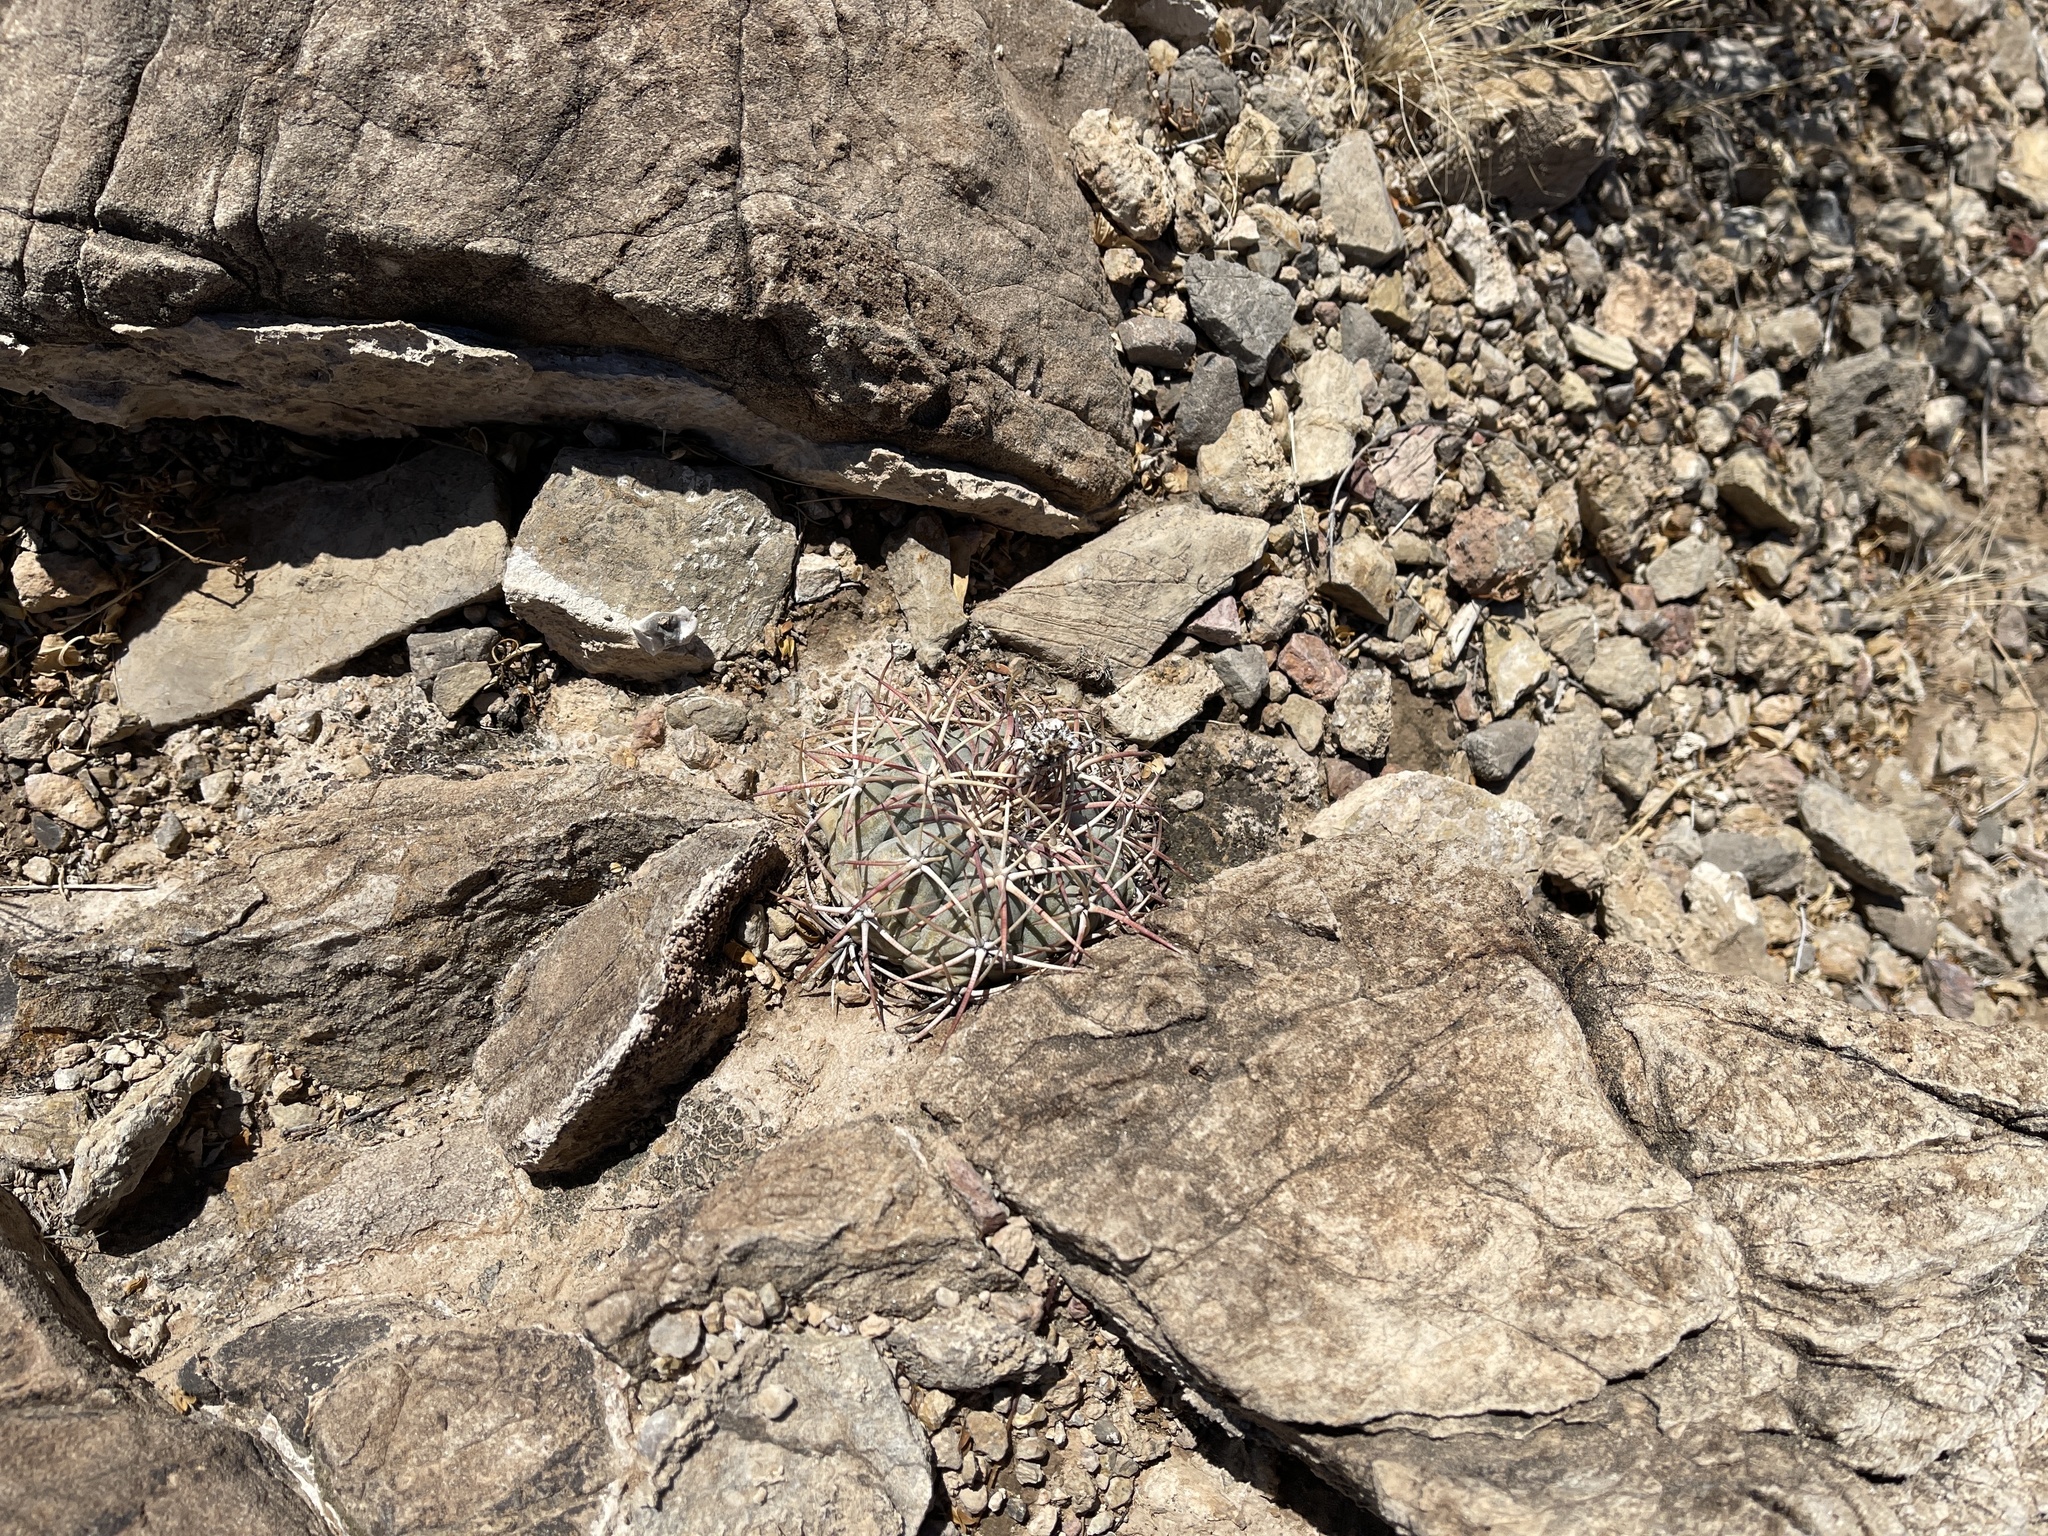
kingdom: Plantae
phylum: Tracheophyta
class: Magnoliopsida
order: Caryophyllales
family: Cactaceae
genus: Echinocactus
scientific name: Echinocactus horizonthalonius
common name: Devilshead
